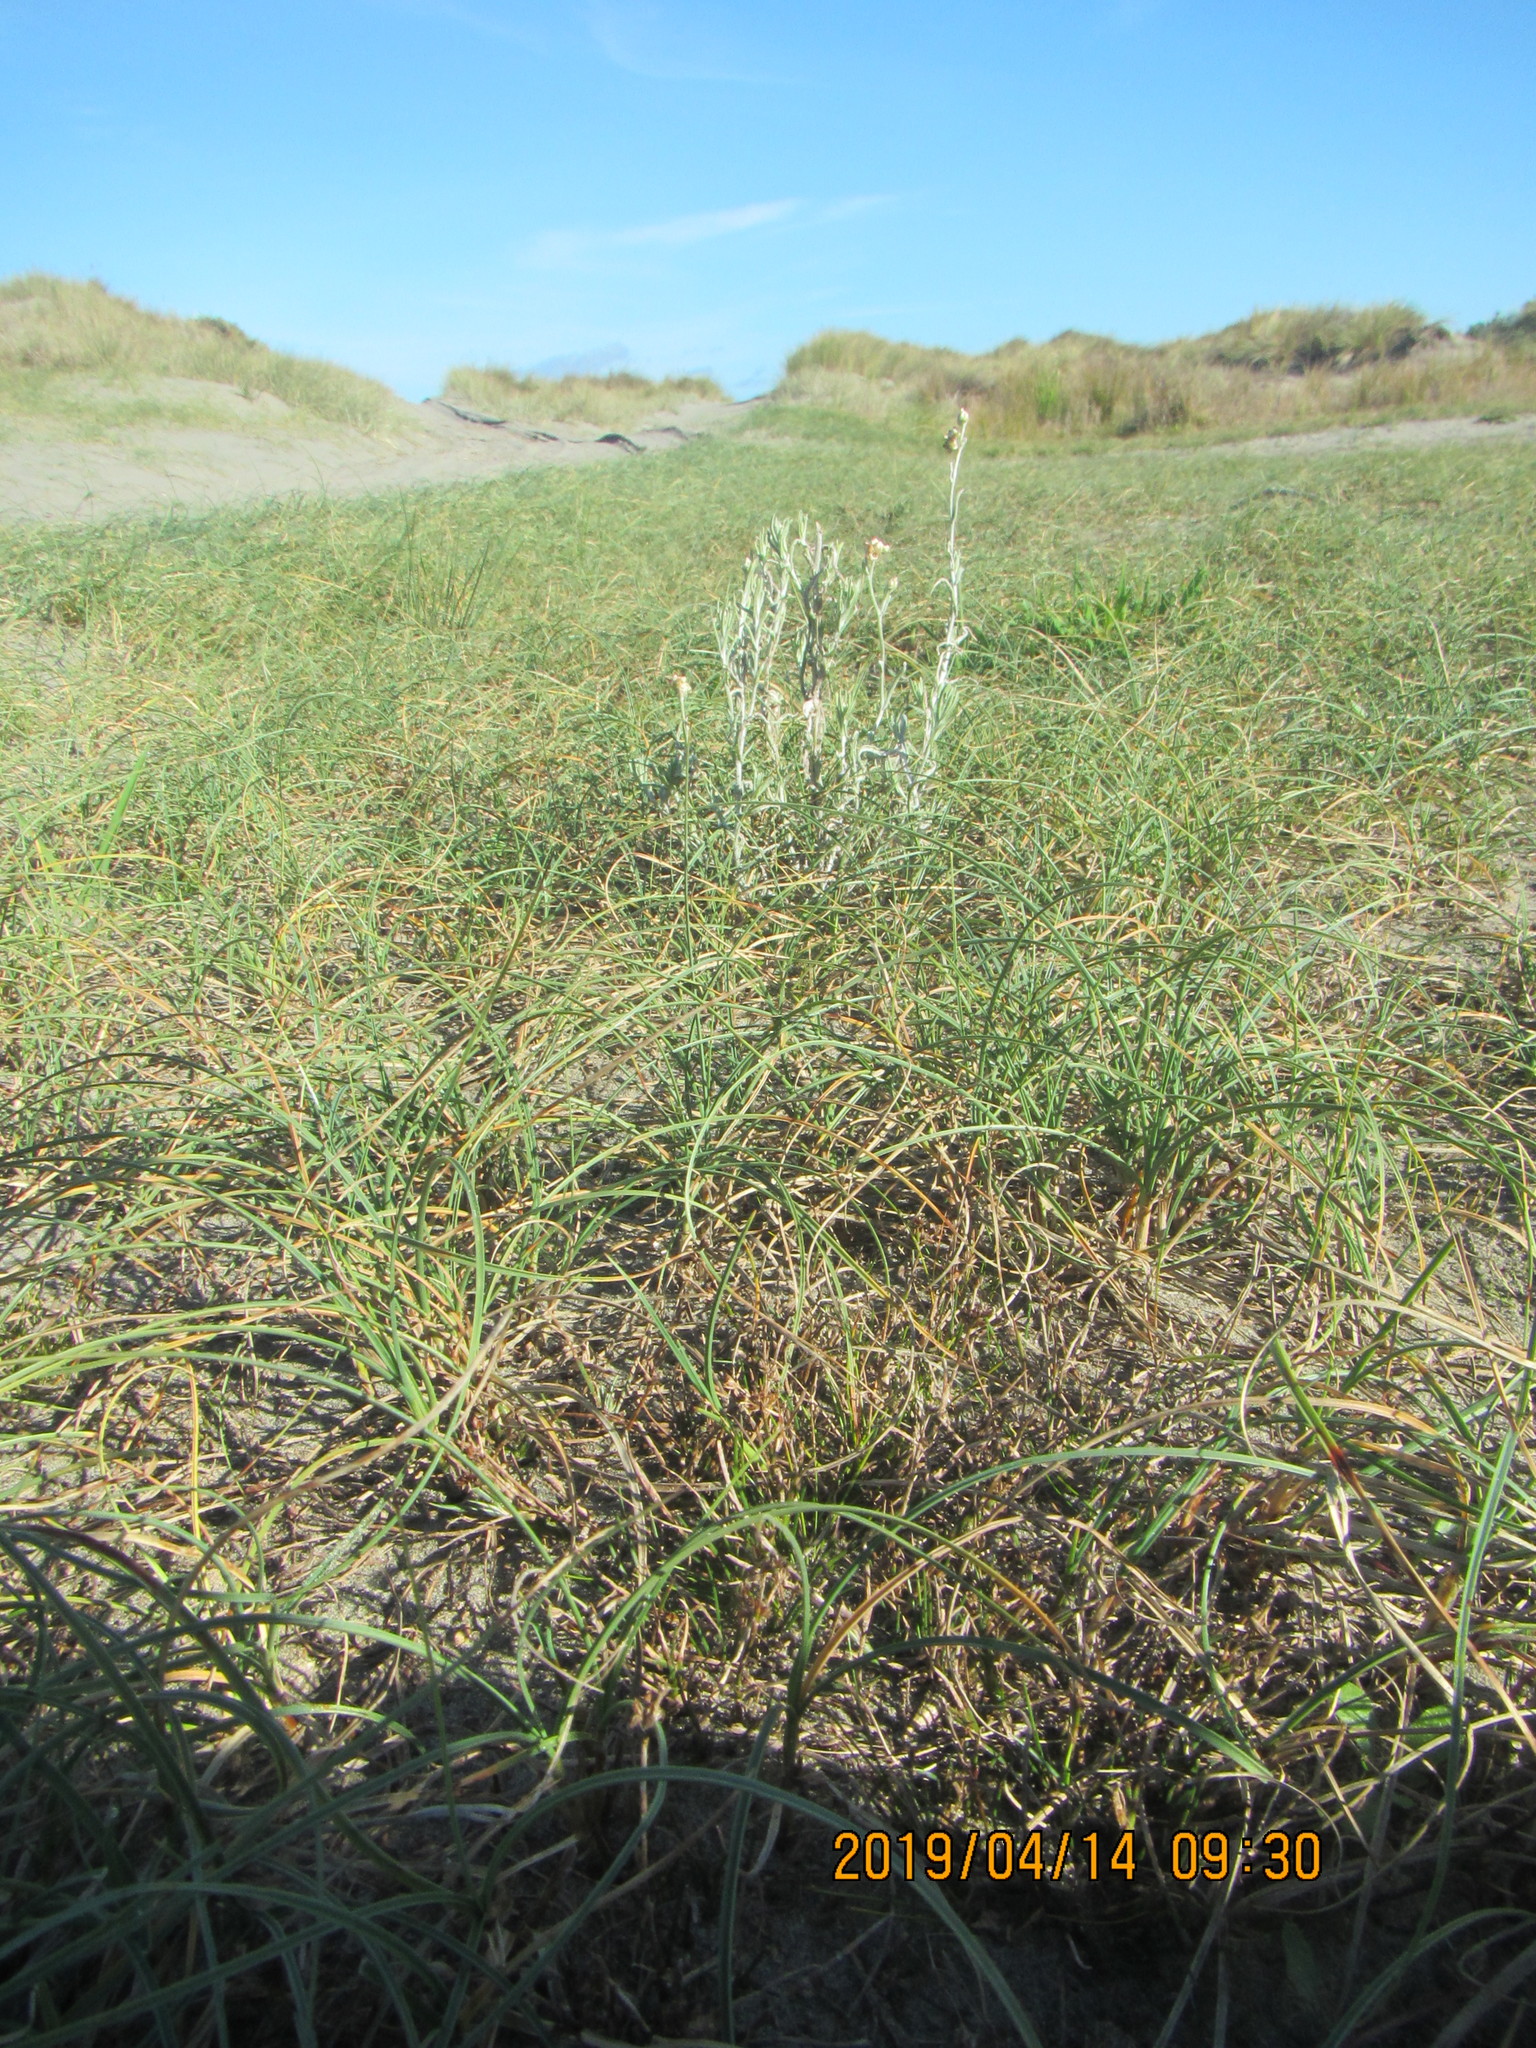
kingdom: Plantae
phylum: Tracheophyta
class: Magnoliopsida
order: Asterales
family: Asteraceae
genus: Helichrysum
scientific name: Helichrysum luteoalbum
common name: Daisy
